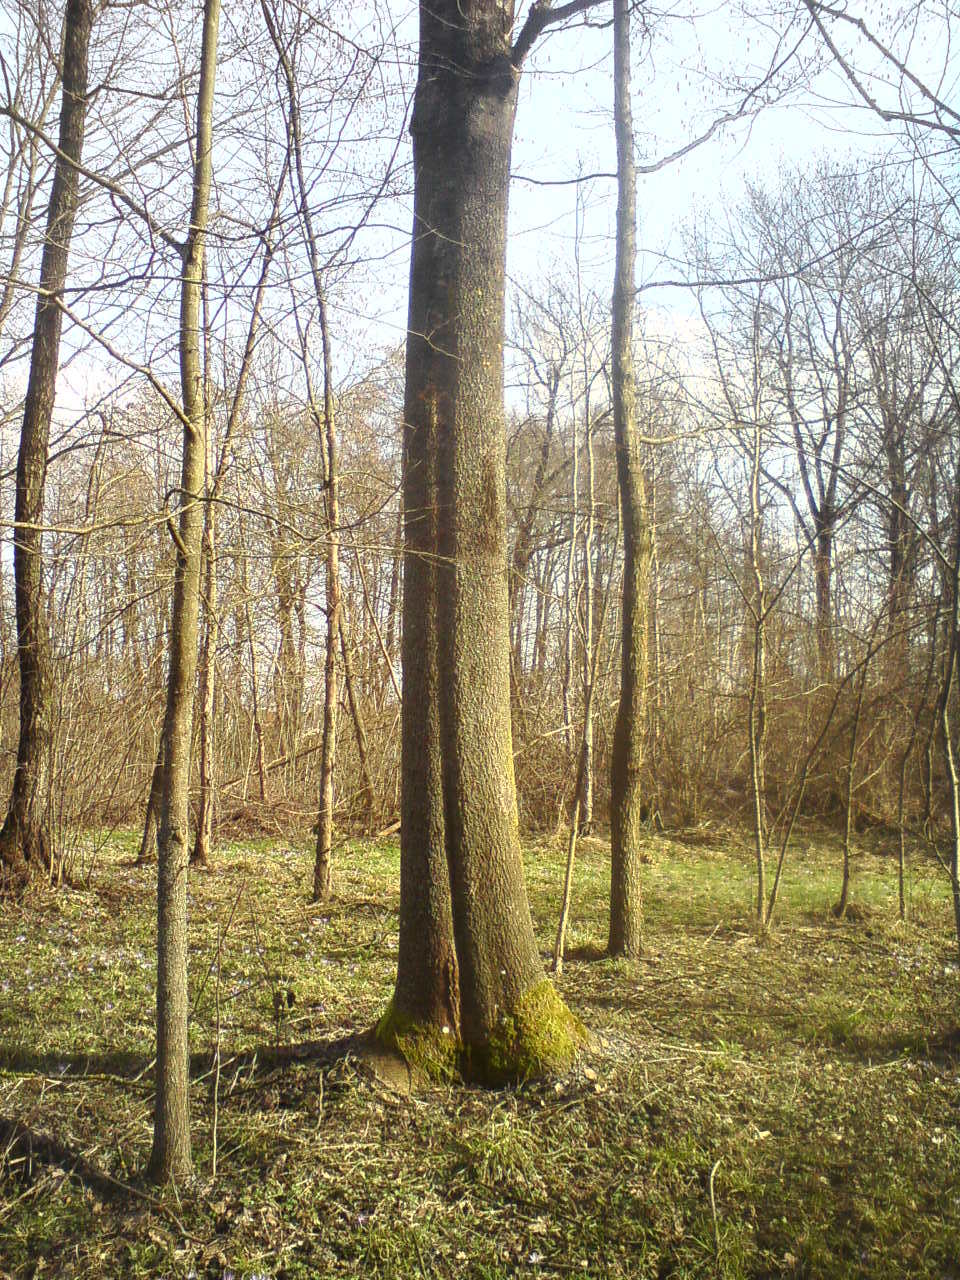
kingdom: Plantae
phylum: Tracheophyta
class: Magnoliopsida
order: Lamiales
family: Oleaceae
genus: Fraxinus
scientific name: Fraxinus angustifolia
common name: Narrow-leafed ash
